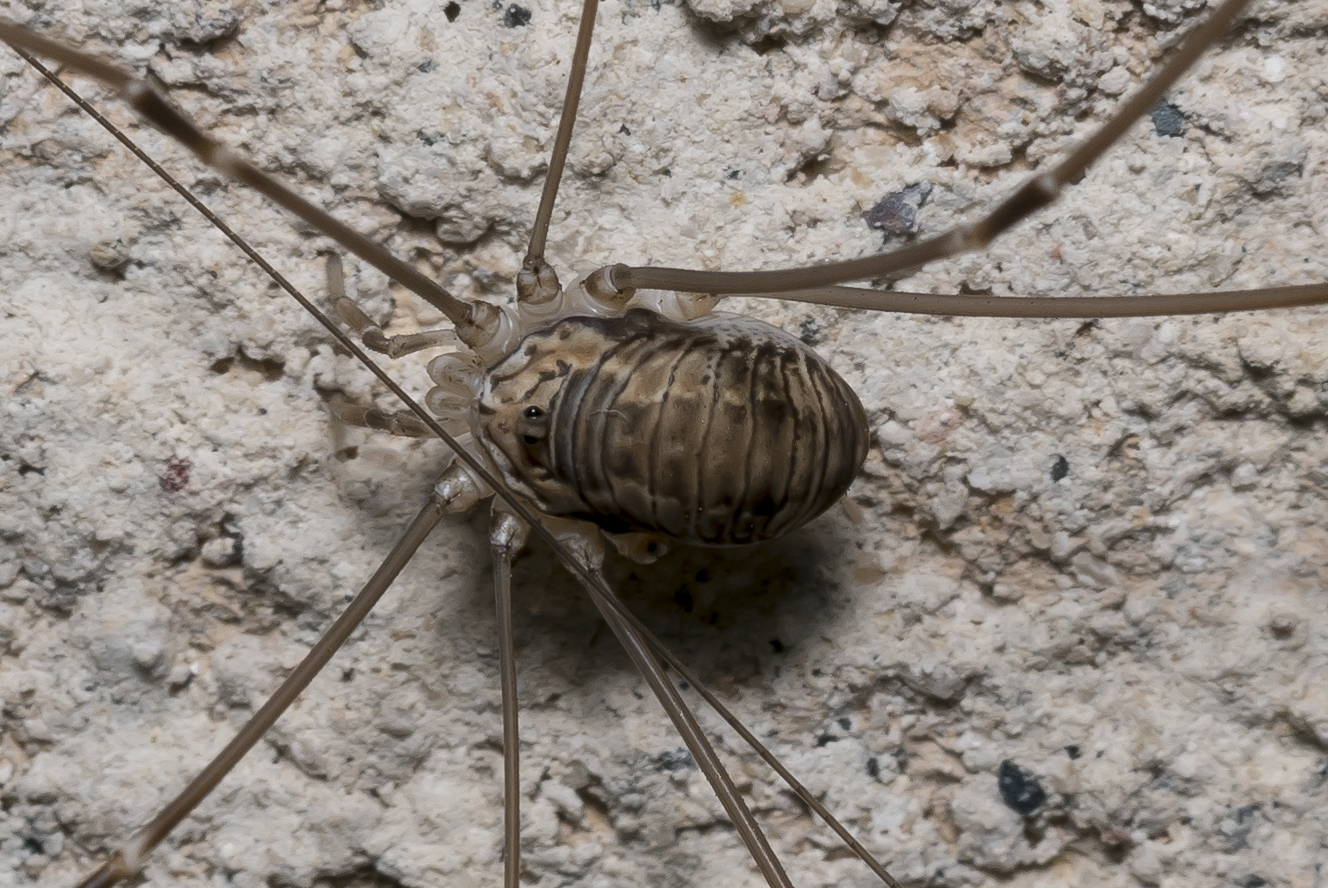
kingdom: Animalia
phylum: Arthropoda
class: Arachnida
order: Opiliones
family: Sclerosomatidae
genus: Leiobunum
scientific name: Leiobunum limbatum
